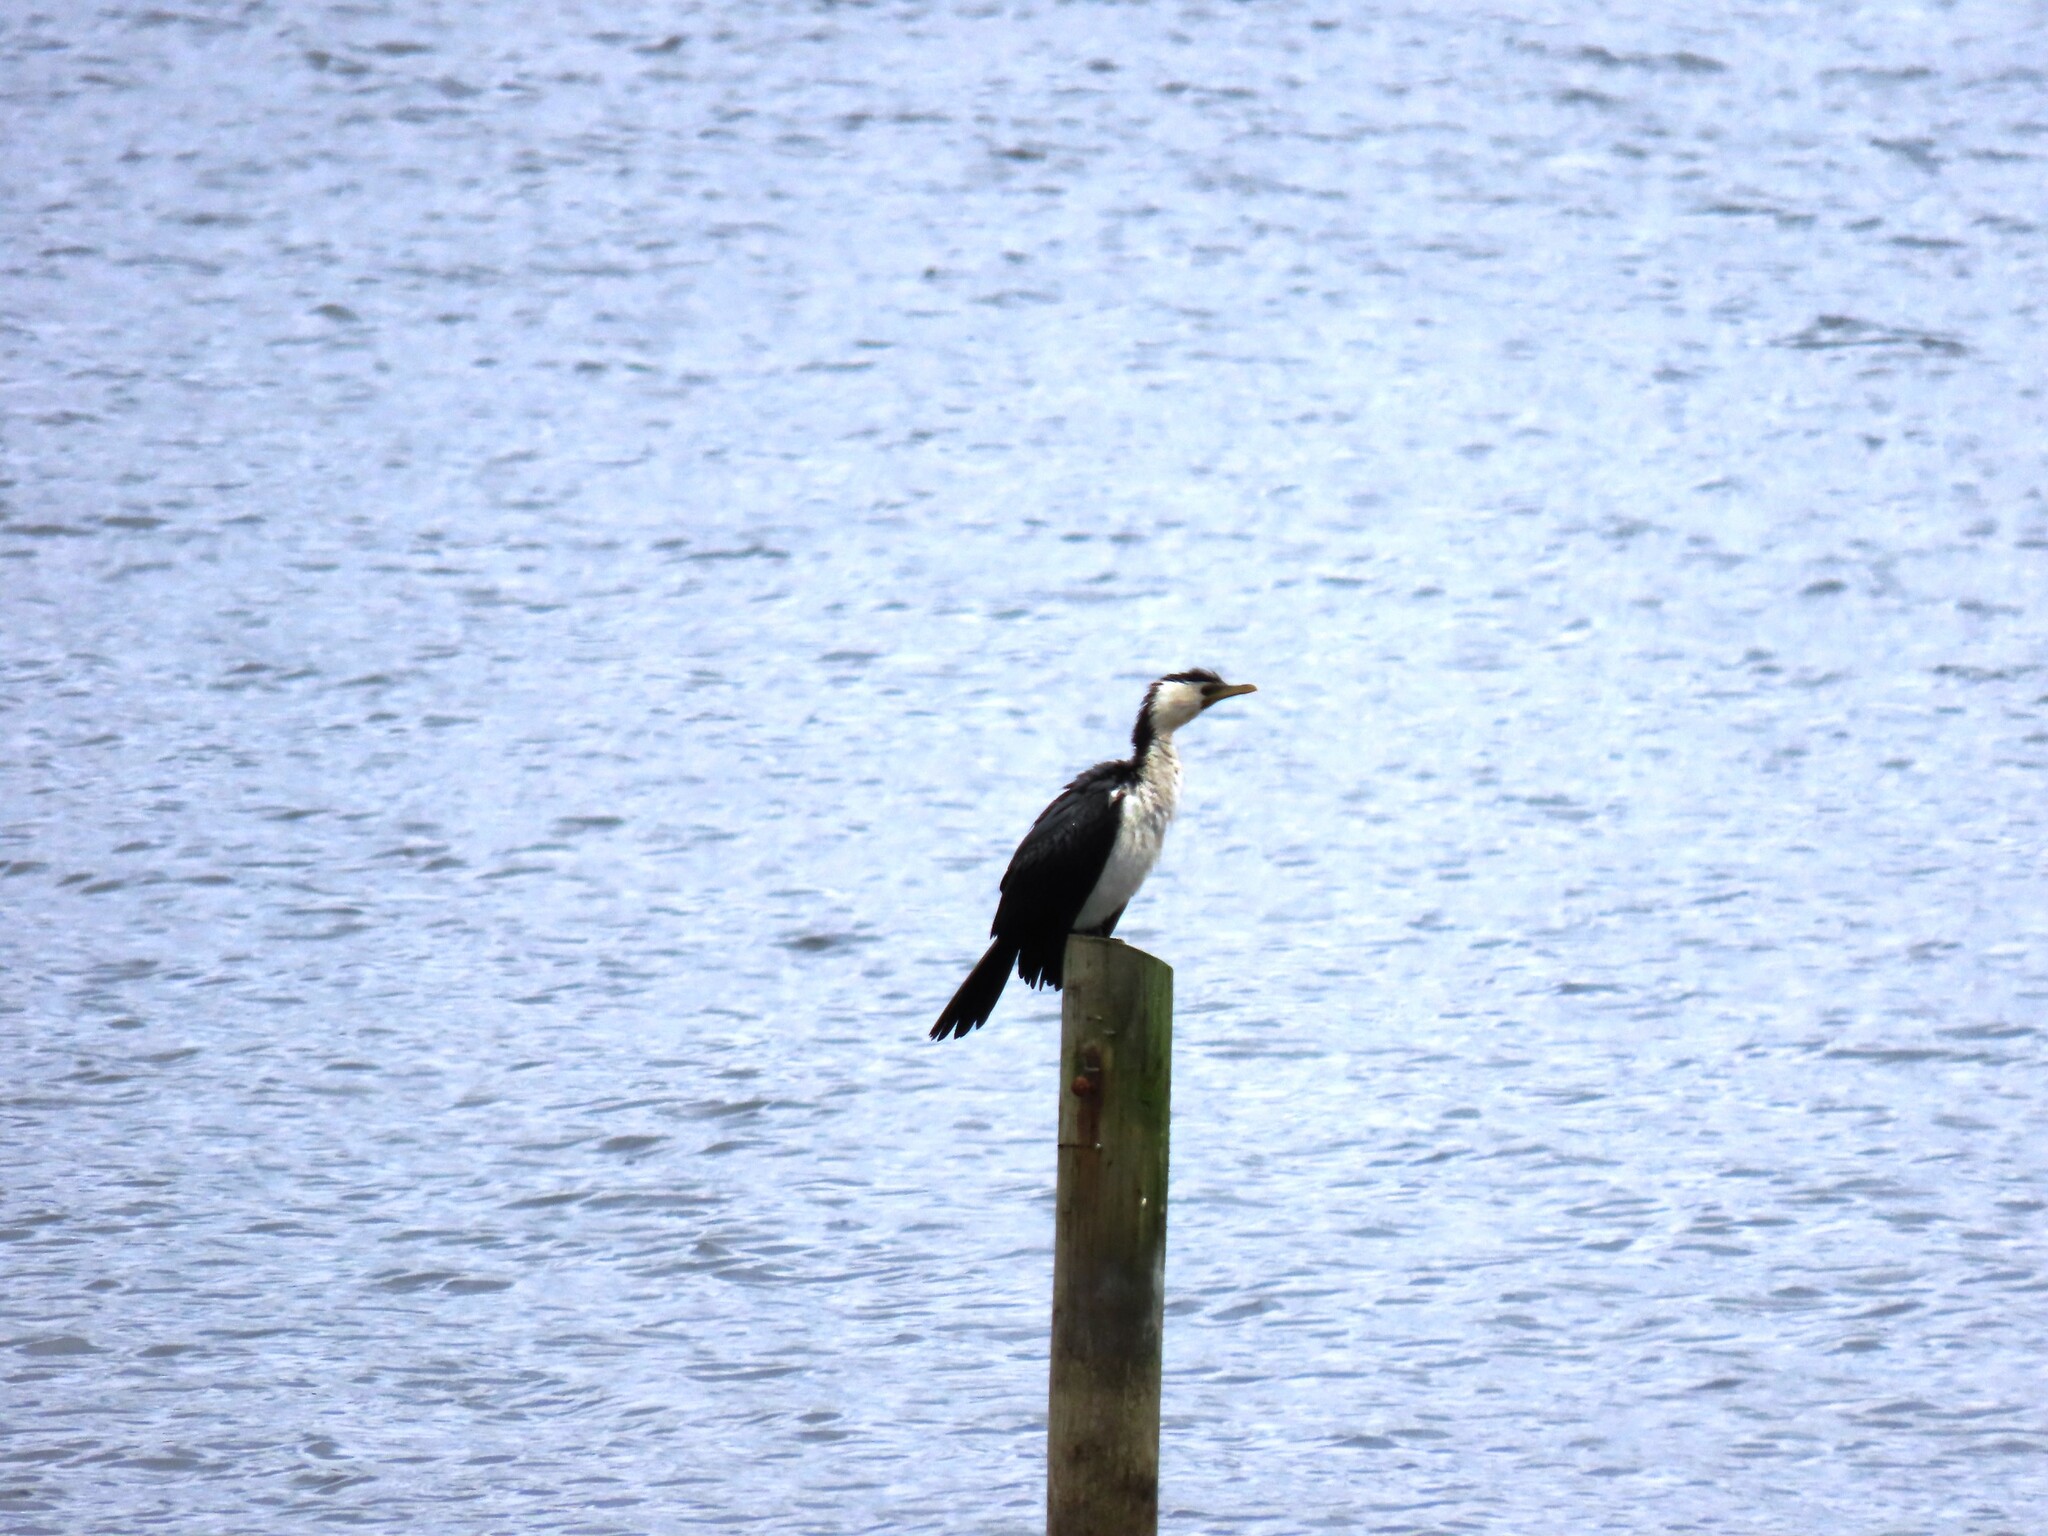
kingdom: Animalia
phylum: Chordata
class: Aves
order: Suliformes
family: Phalacrocoracidae
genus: Microcarbo
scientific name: Microcarbo melanoleucos
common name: Little pied cormorant
